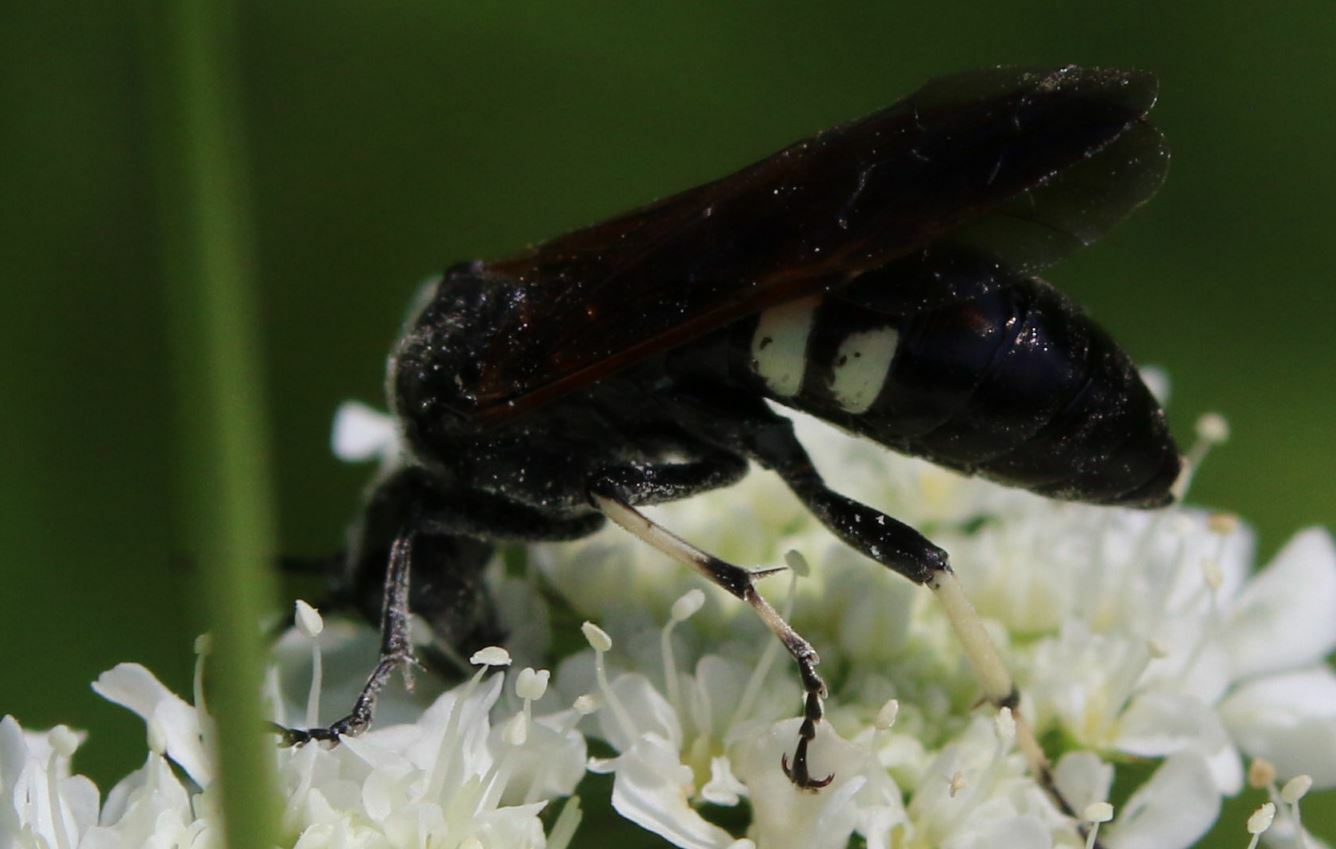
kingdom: Animalia
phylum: Arthropoda
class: Insecta
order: Hymenoptera
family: Tenthredinidae
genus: Tenthredo
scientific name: Tenthredo bifasciata
